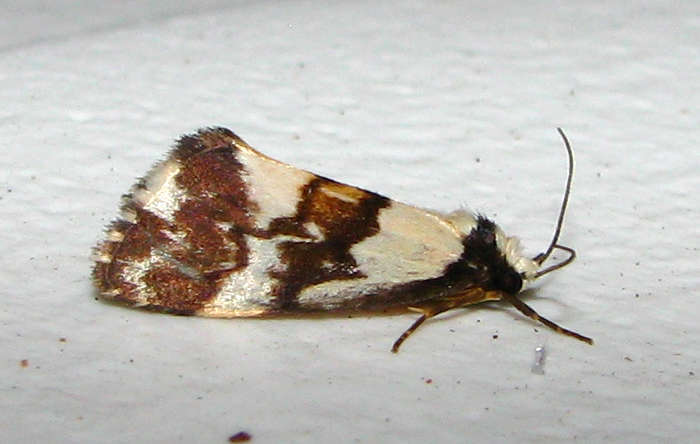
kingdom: Animalia
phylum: Arthropoda
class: Insecta
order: Lepidoptera
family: Erebidae
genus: Philenora
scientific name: Philenora irregularis
